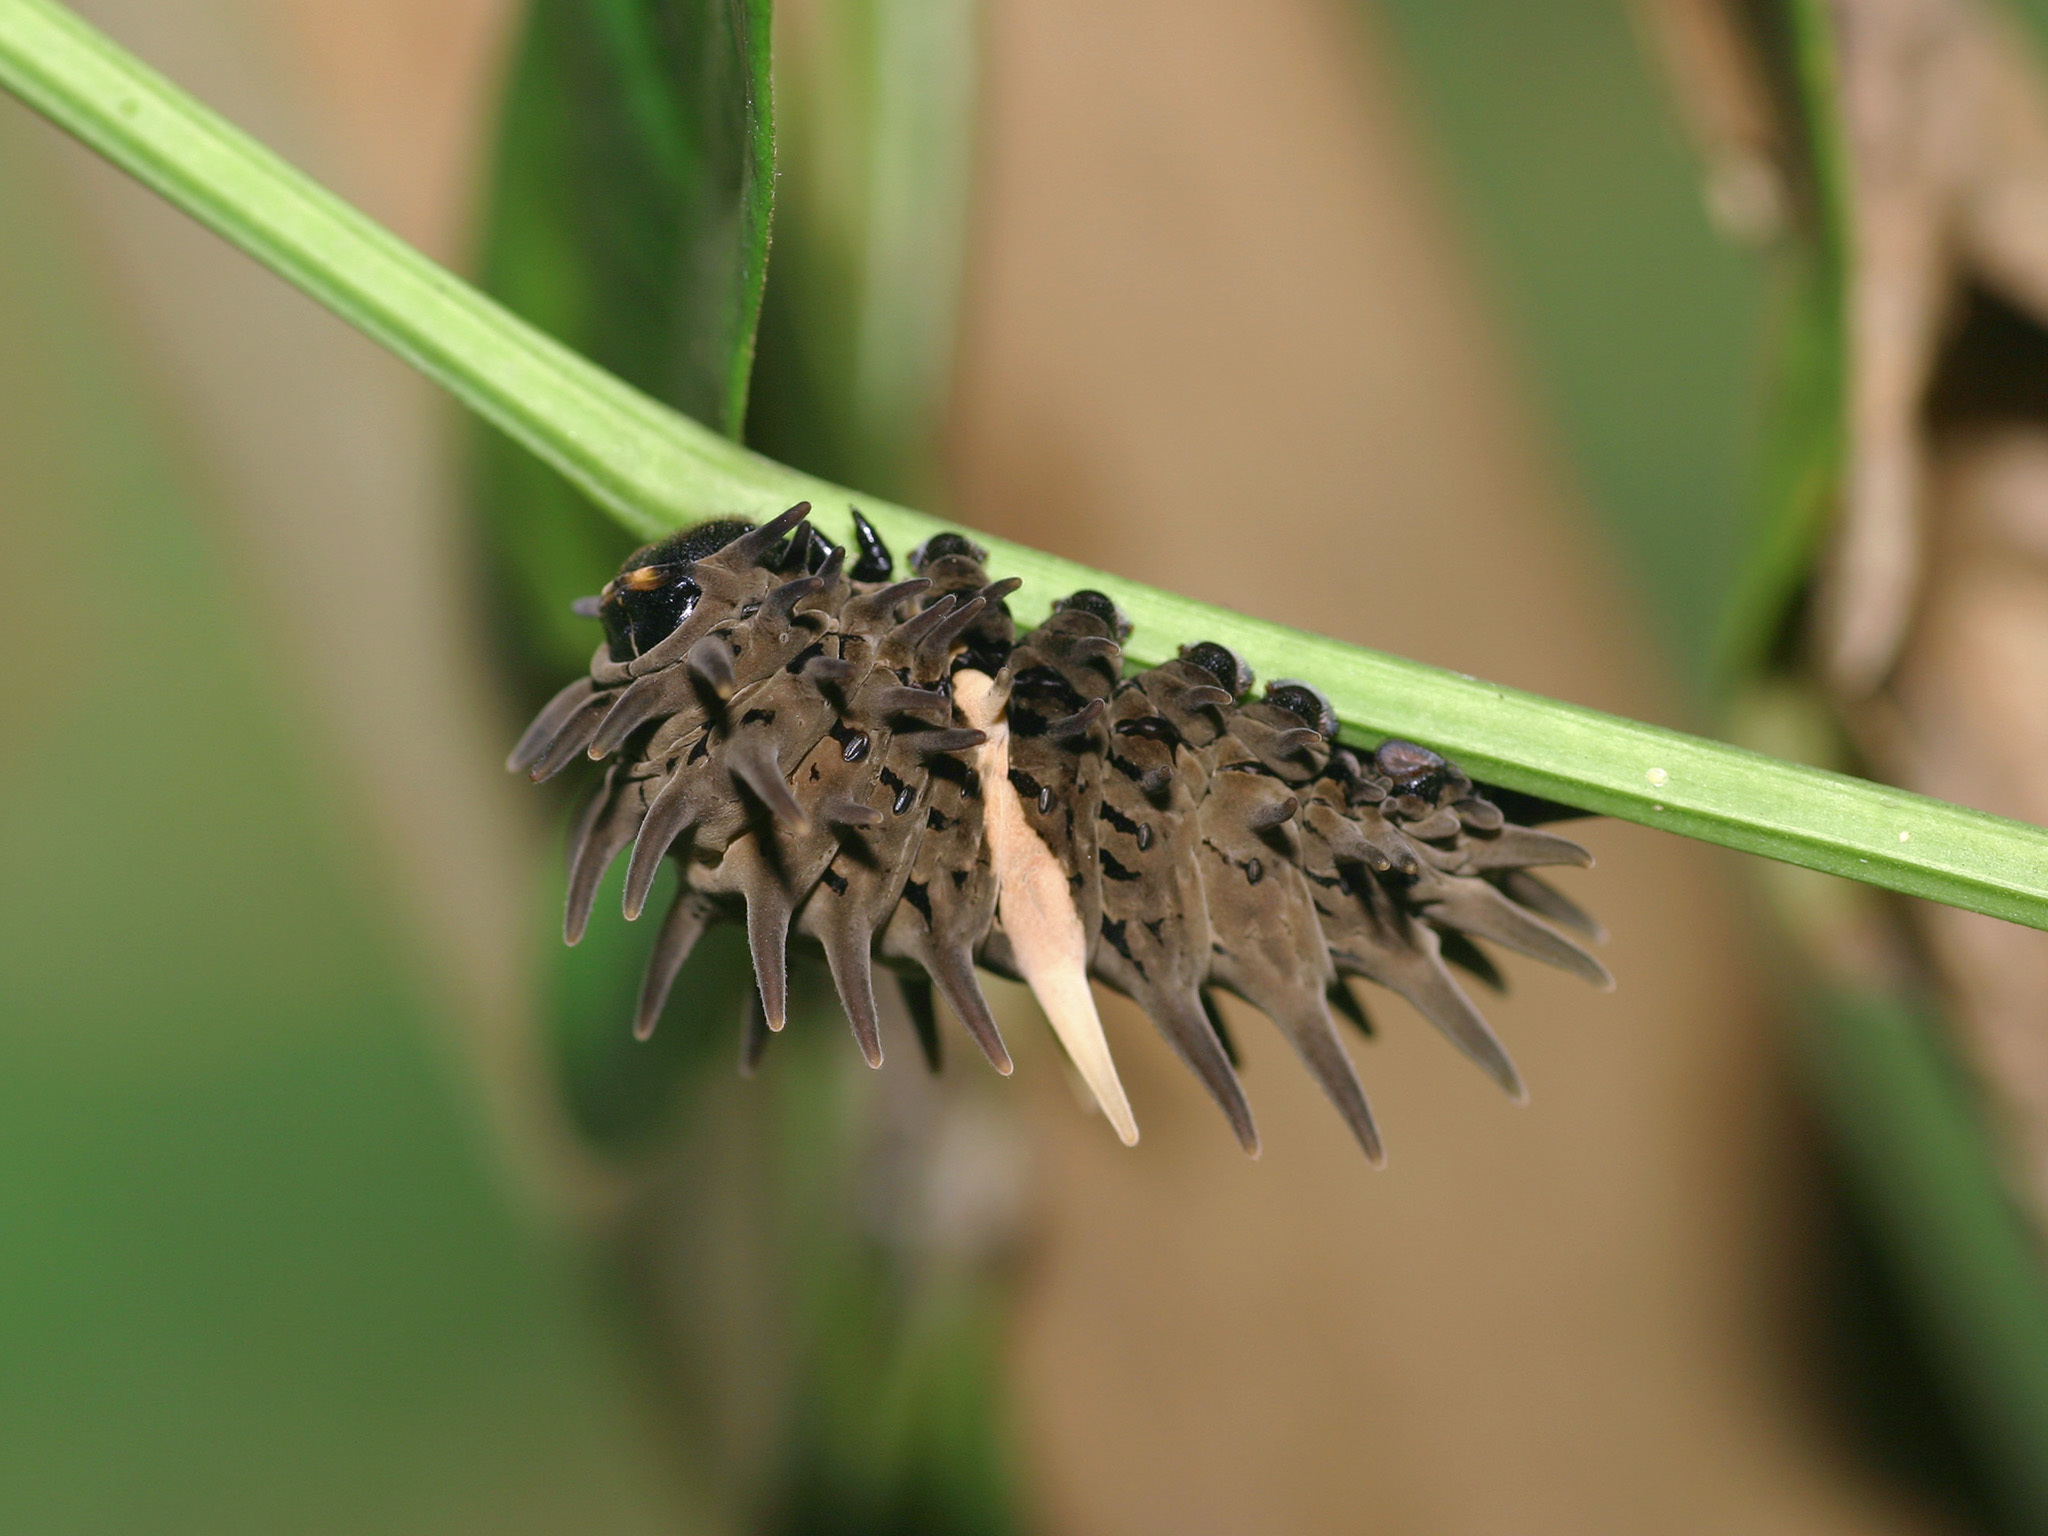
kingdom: Animalia
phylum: Arthropoda
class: Insecta
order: Lepidoptera
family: Papilionidae
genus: Troides
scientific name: Troides helena
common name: Common birdwing
